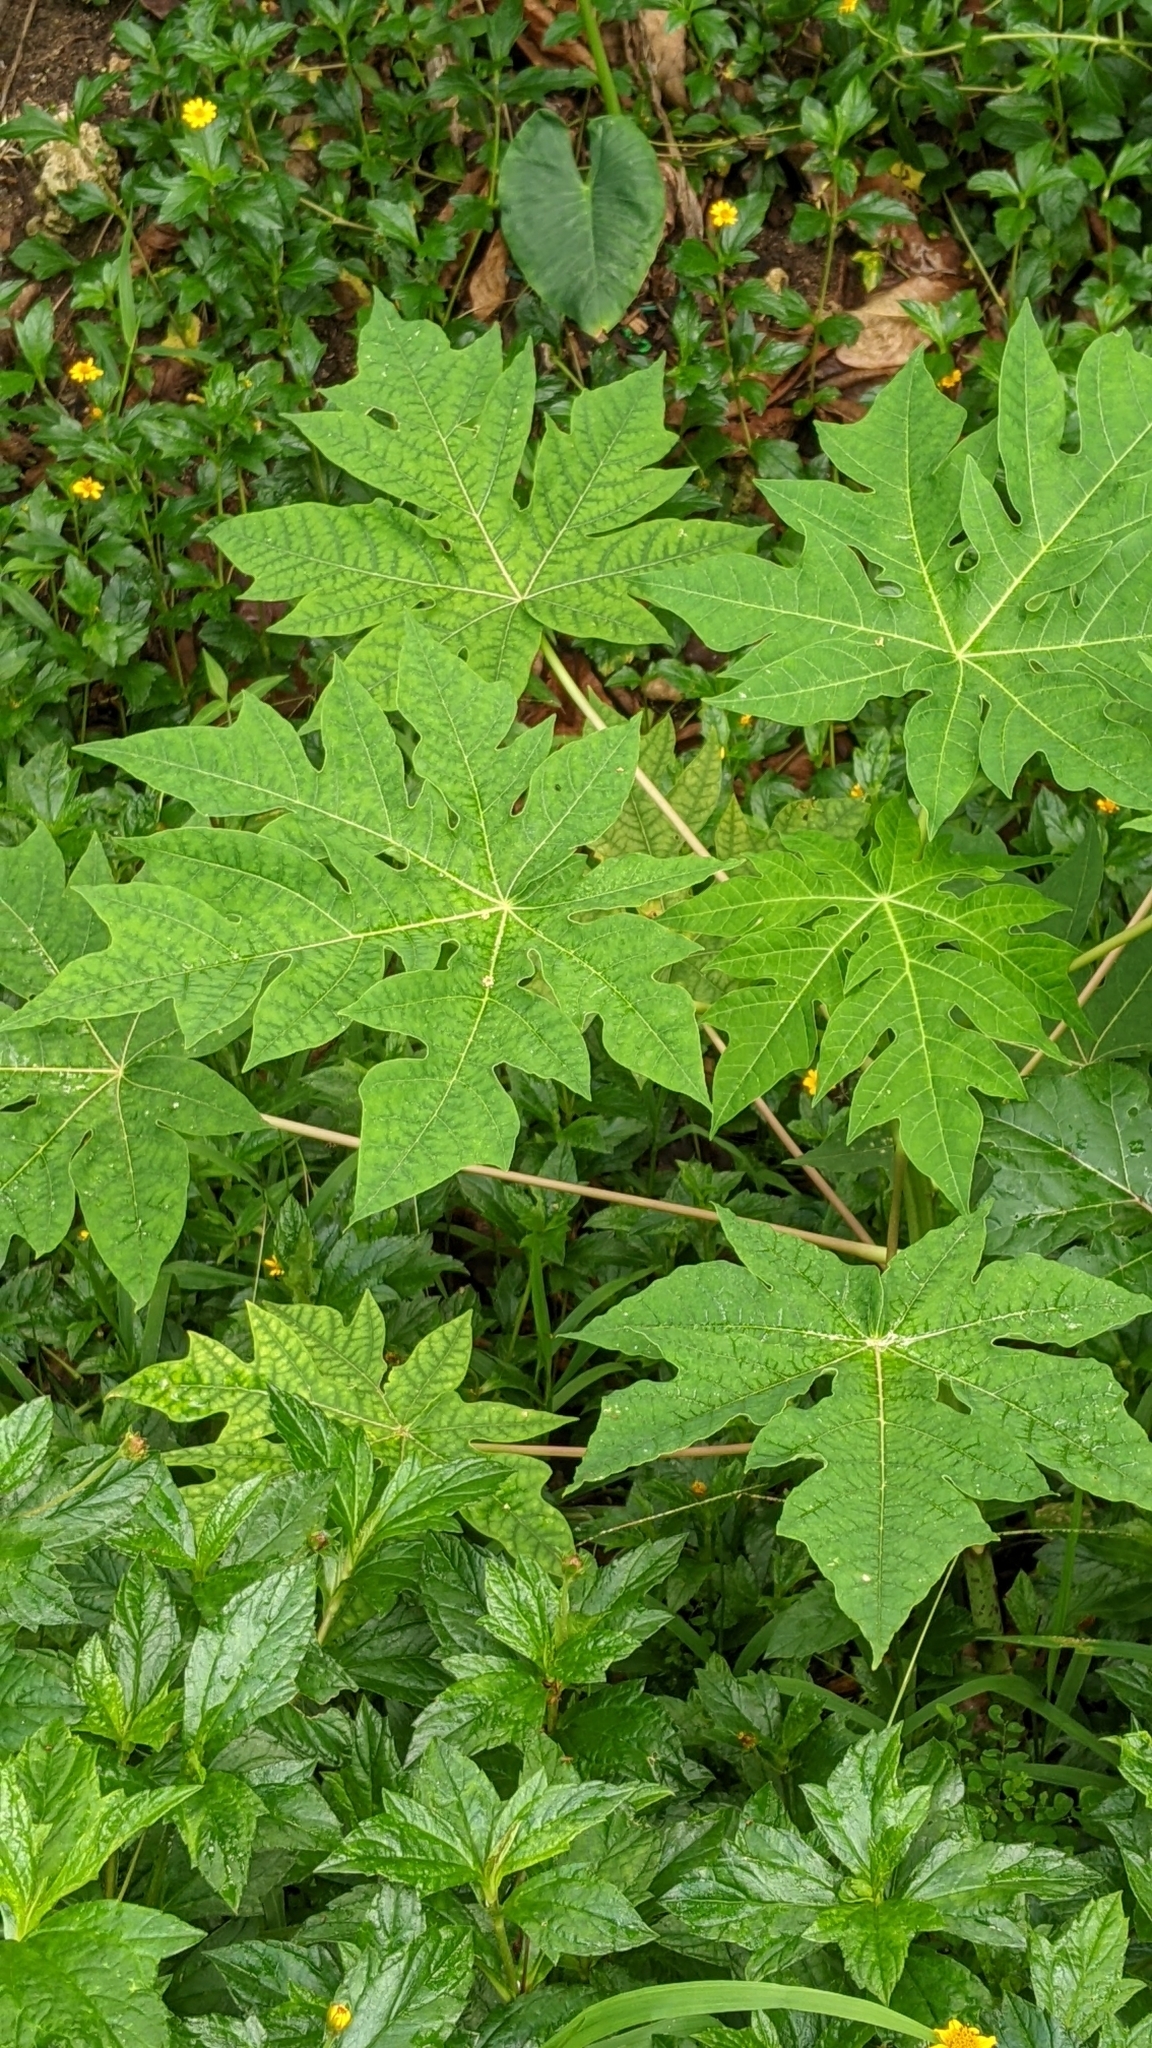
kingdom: Plantae
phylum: Tracheophyta
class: Magnoliopsida
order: Brassicales
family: Caricaceae
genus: Carica
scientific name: Carica papaya
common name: Papaya
